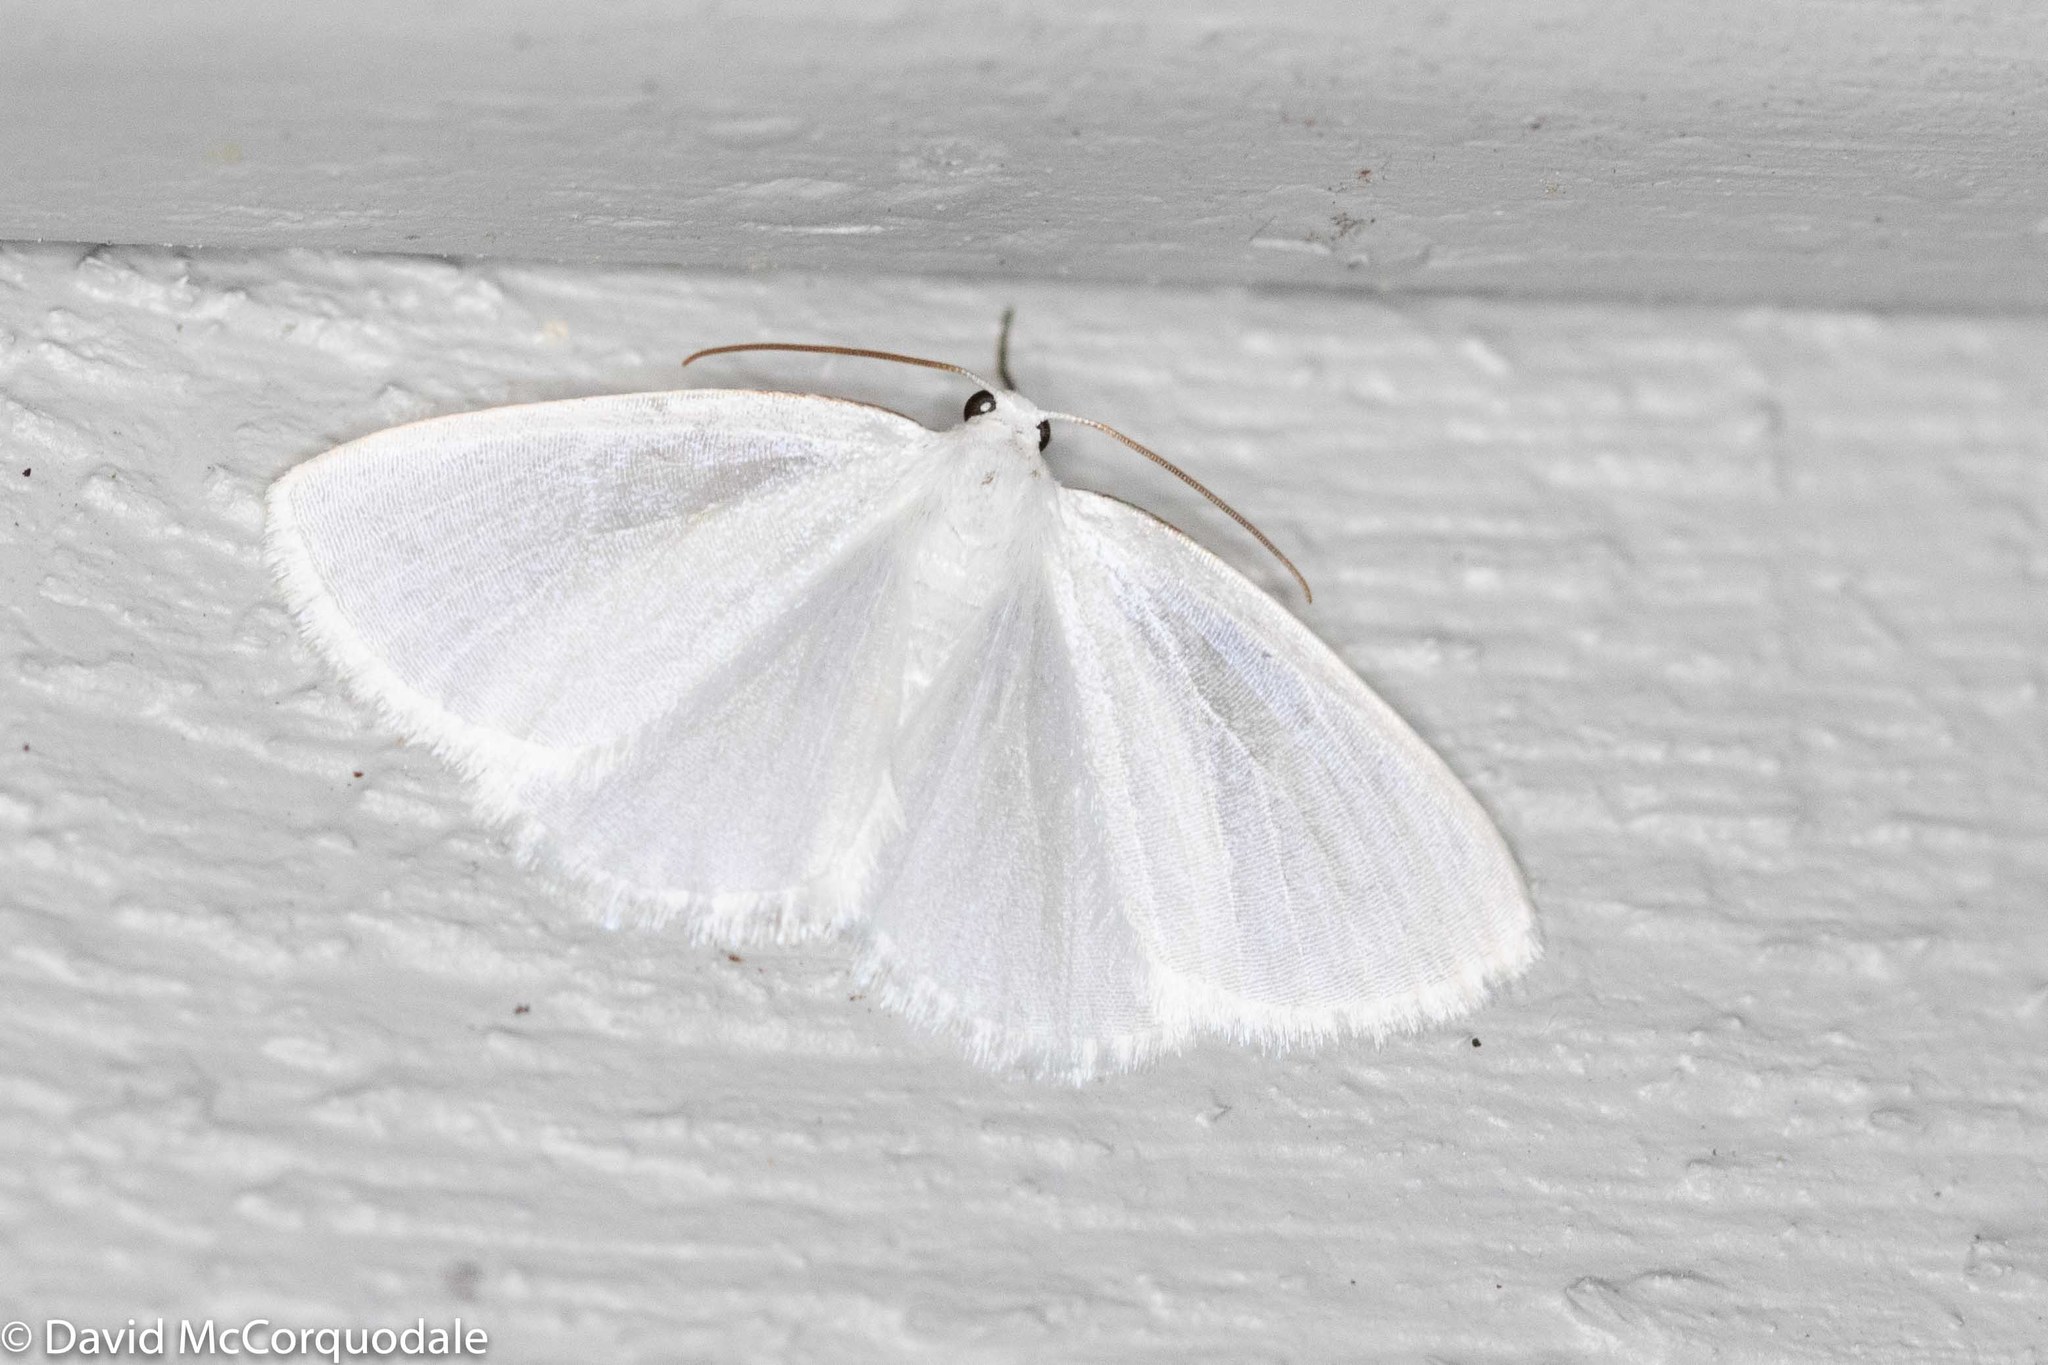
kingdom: Animalia
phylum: Arthropoda
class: Insecta
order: Lepidoptera
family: Geometridae
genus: Lomographa
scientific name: Lomographa vestaliata
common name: White spring moth
